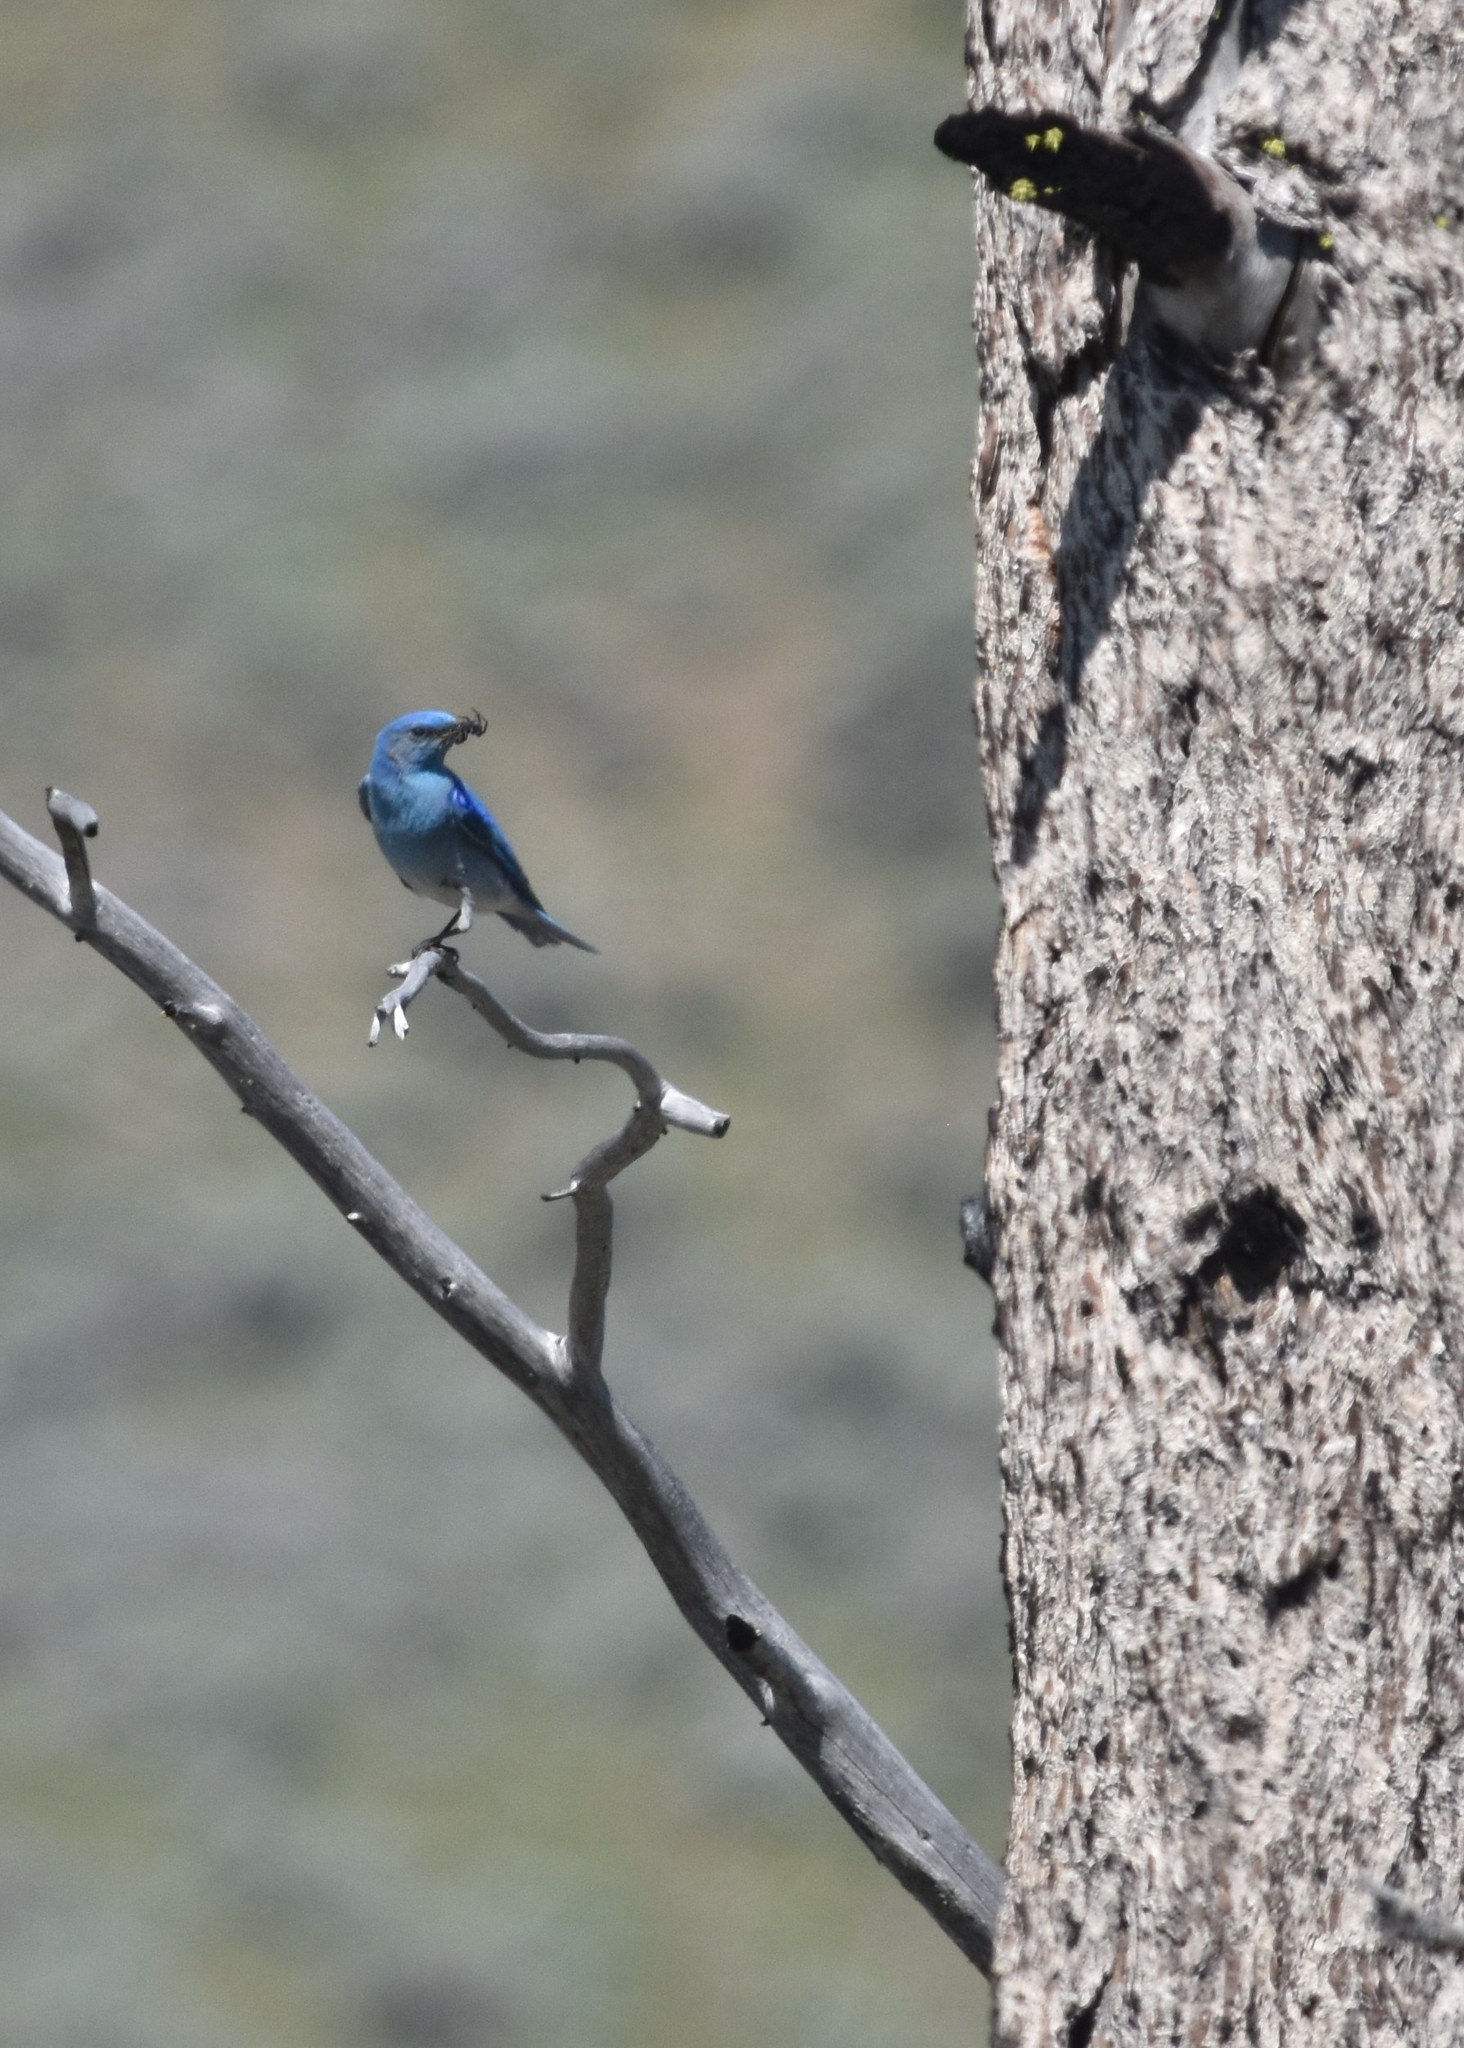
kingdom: Animalia
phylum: Chordata
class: Aves
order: Passeriformes
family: Turdidae
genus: Sialia
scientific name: Sialia currucoides
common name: Mountain bluebird
